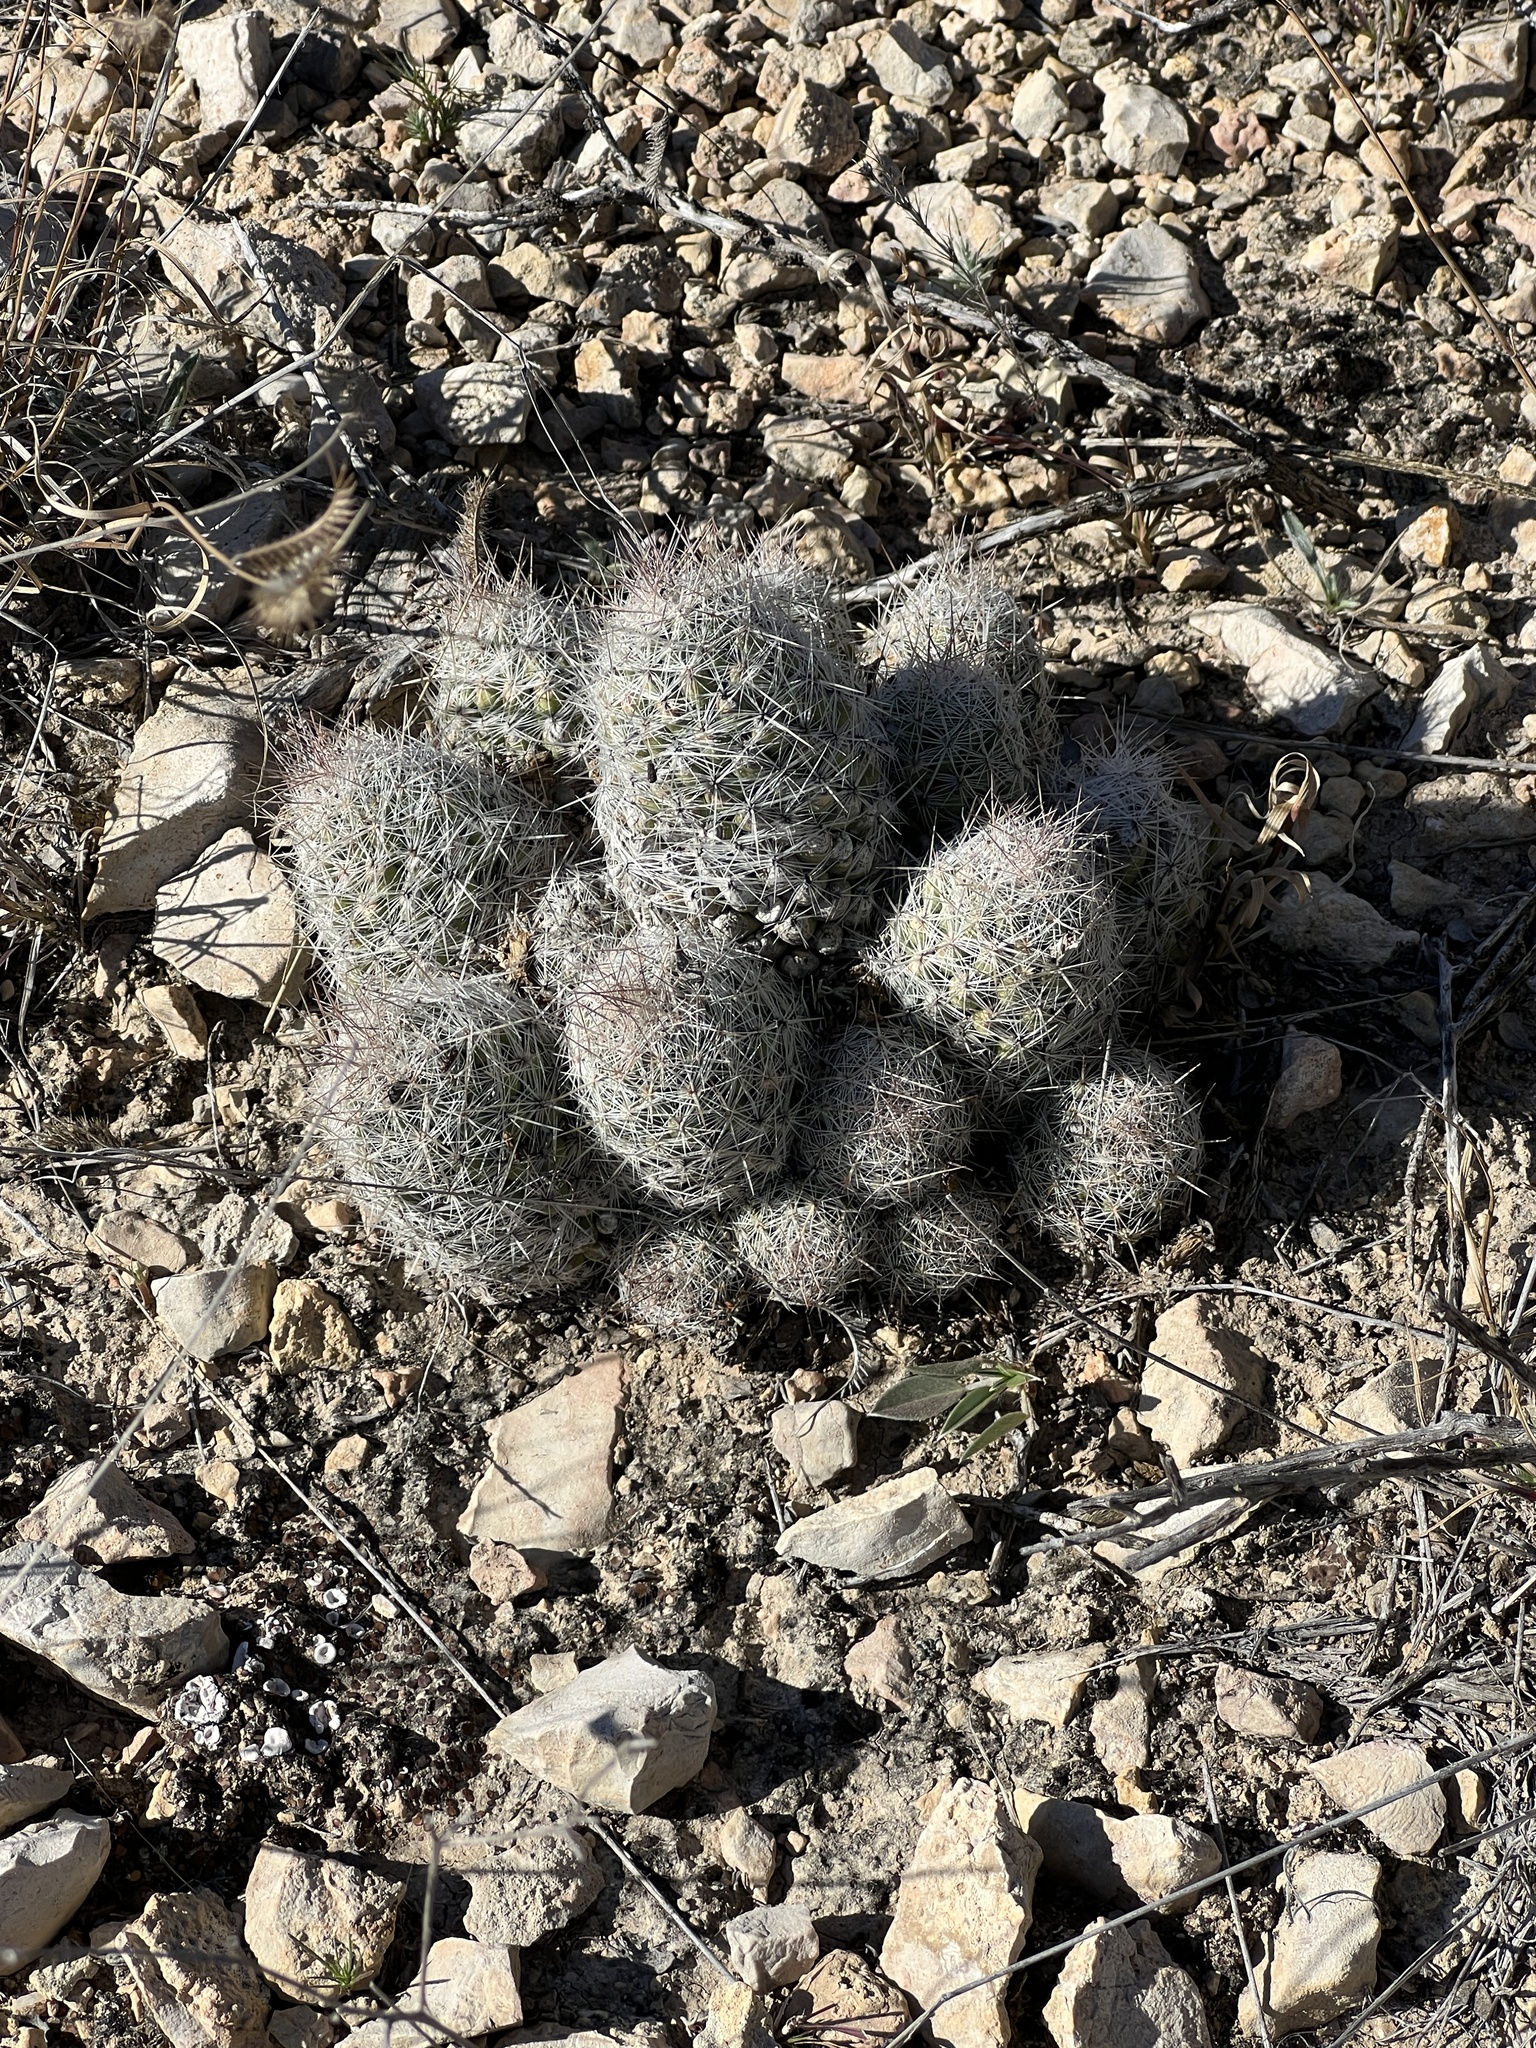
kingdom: Plantae
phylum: Tracheophyta
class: Magnoliopsida
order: Caryophyllales
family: Cactaceae
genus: Pelecyphora
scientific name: Pelecyphora tuberculosa
